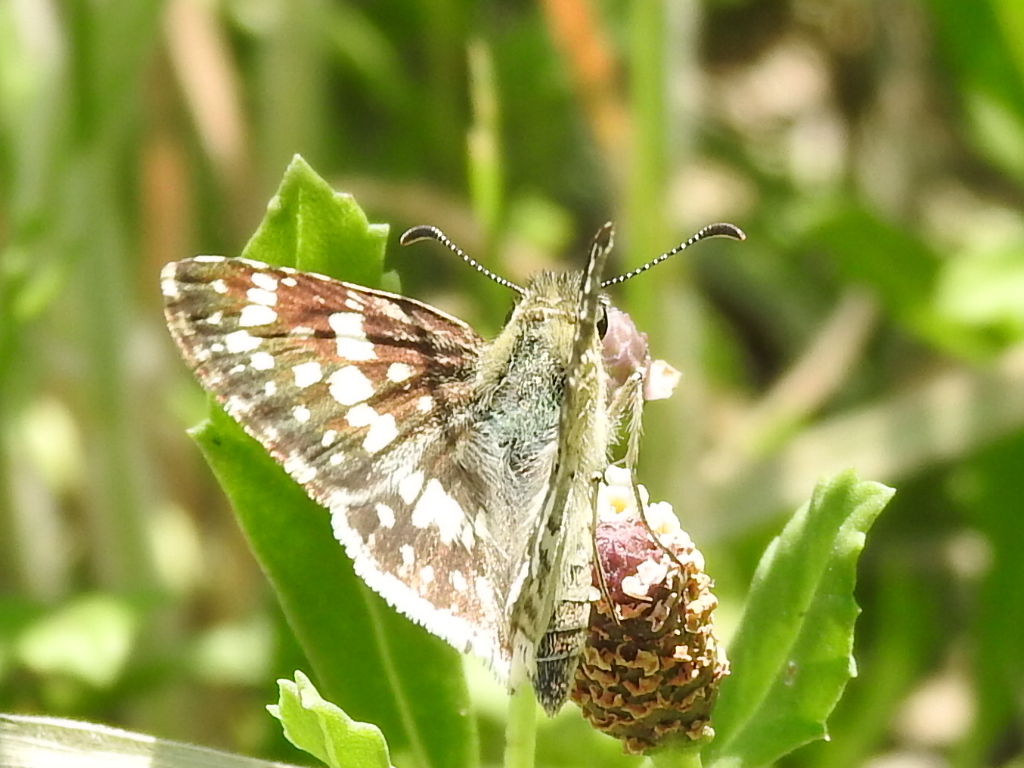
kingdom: Animalia
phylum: Arthropoda
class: Insecta
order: Lepidoptera
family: Hesperiidae
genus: Burnsius
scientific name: Burnsius
